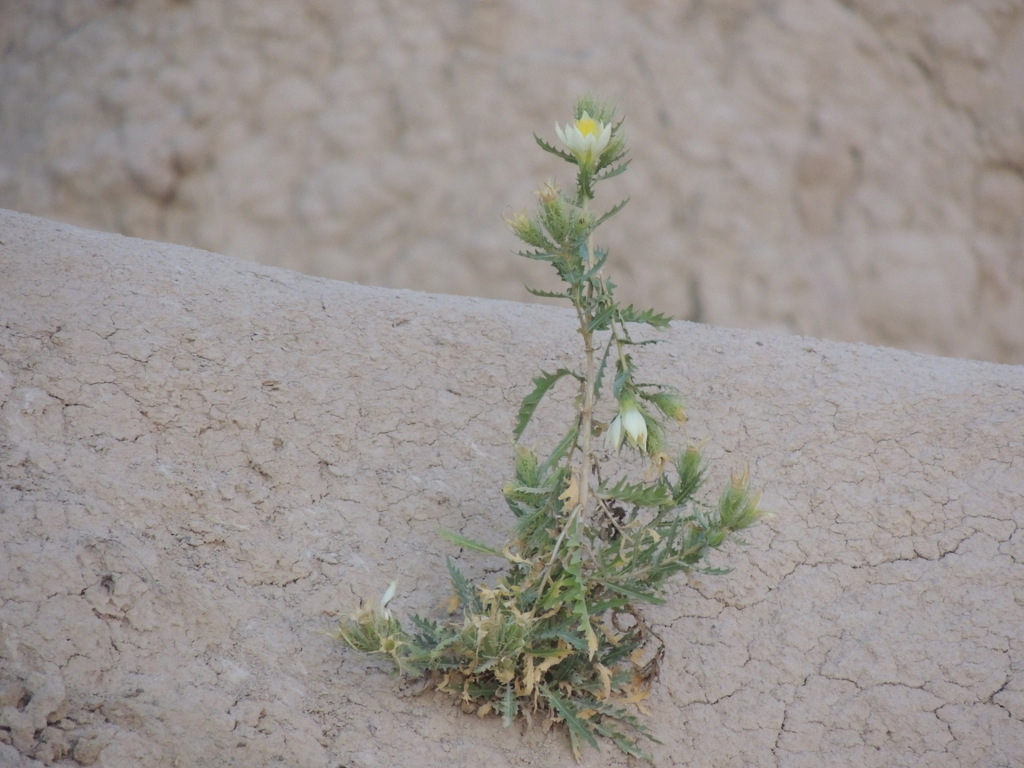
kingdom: Plantae
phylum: Tracheophyta
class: Magnoliopsida
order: Cornales
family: Loasaceae
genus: Mentzelia
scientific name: Mentzelia decapetala
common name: Gumbo-lily
